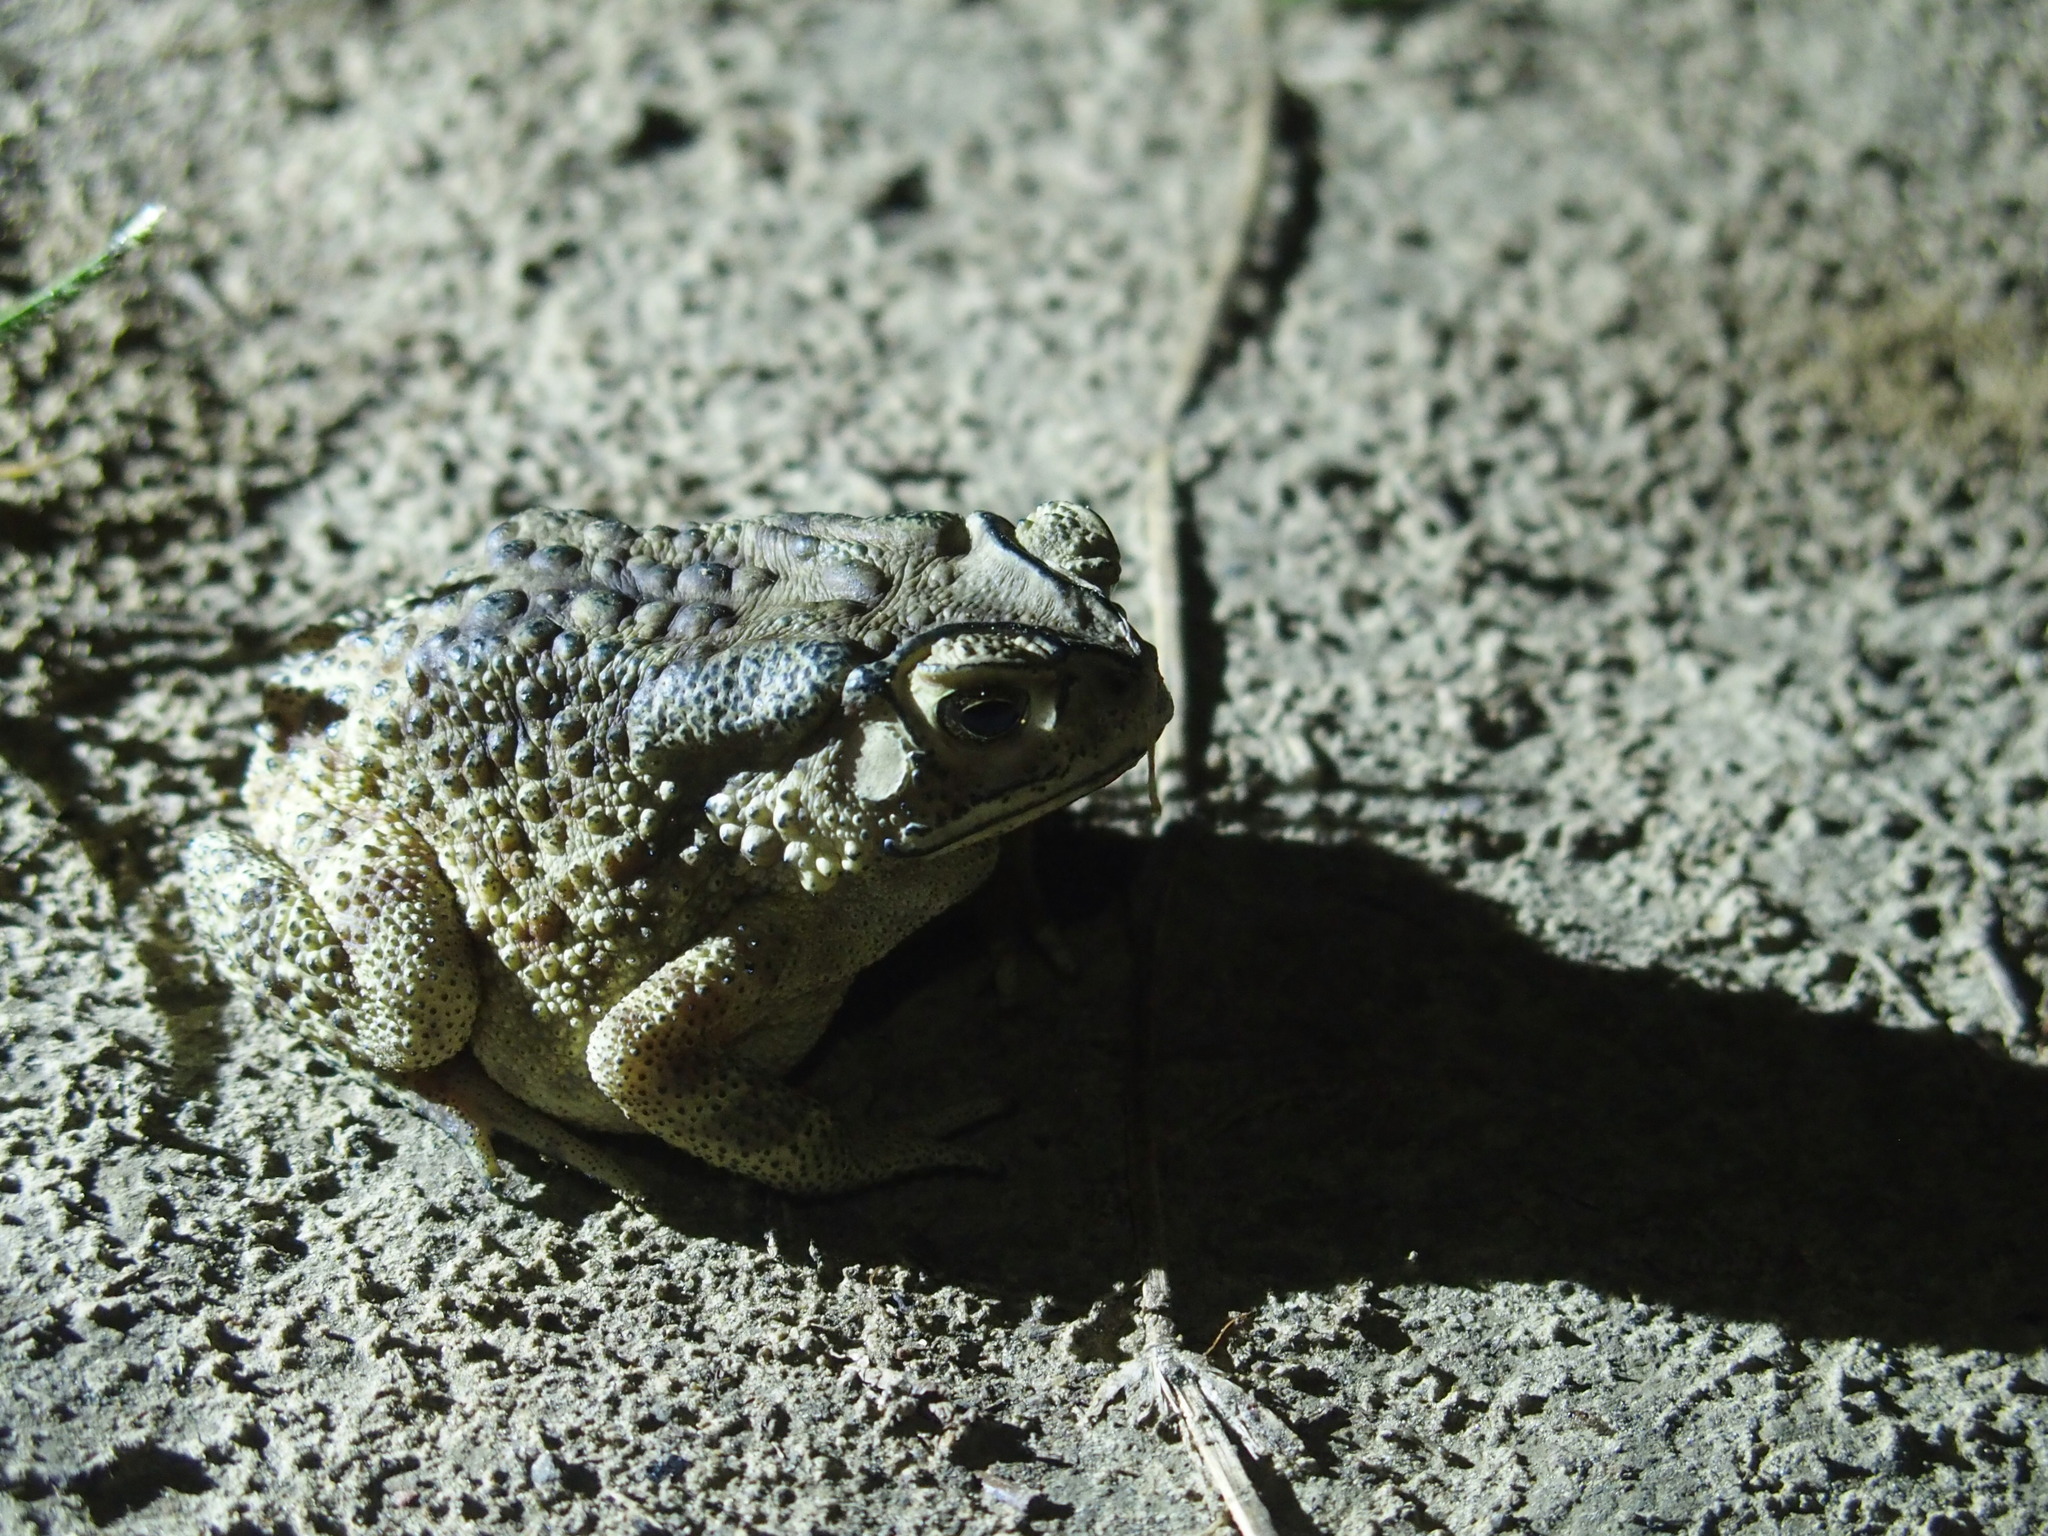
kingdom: Animalia
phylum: Chordata
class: Amphibia
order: Anura
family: Bufonidae
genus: Duttaphrynus
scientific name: Duttaphrynus melanostictus
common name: Common sunda toad
